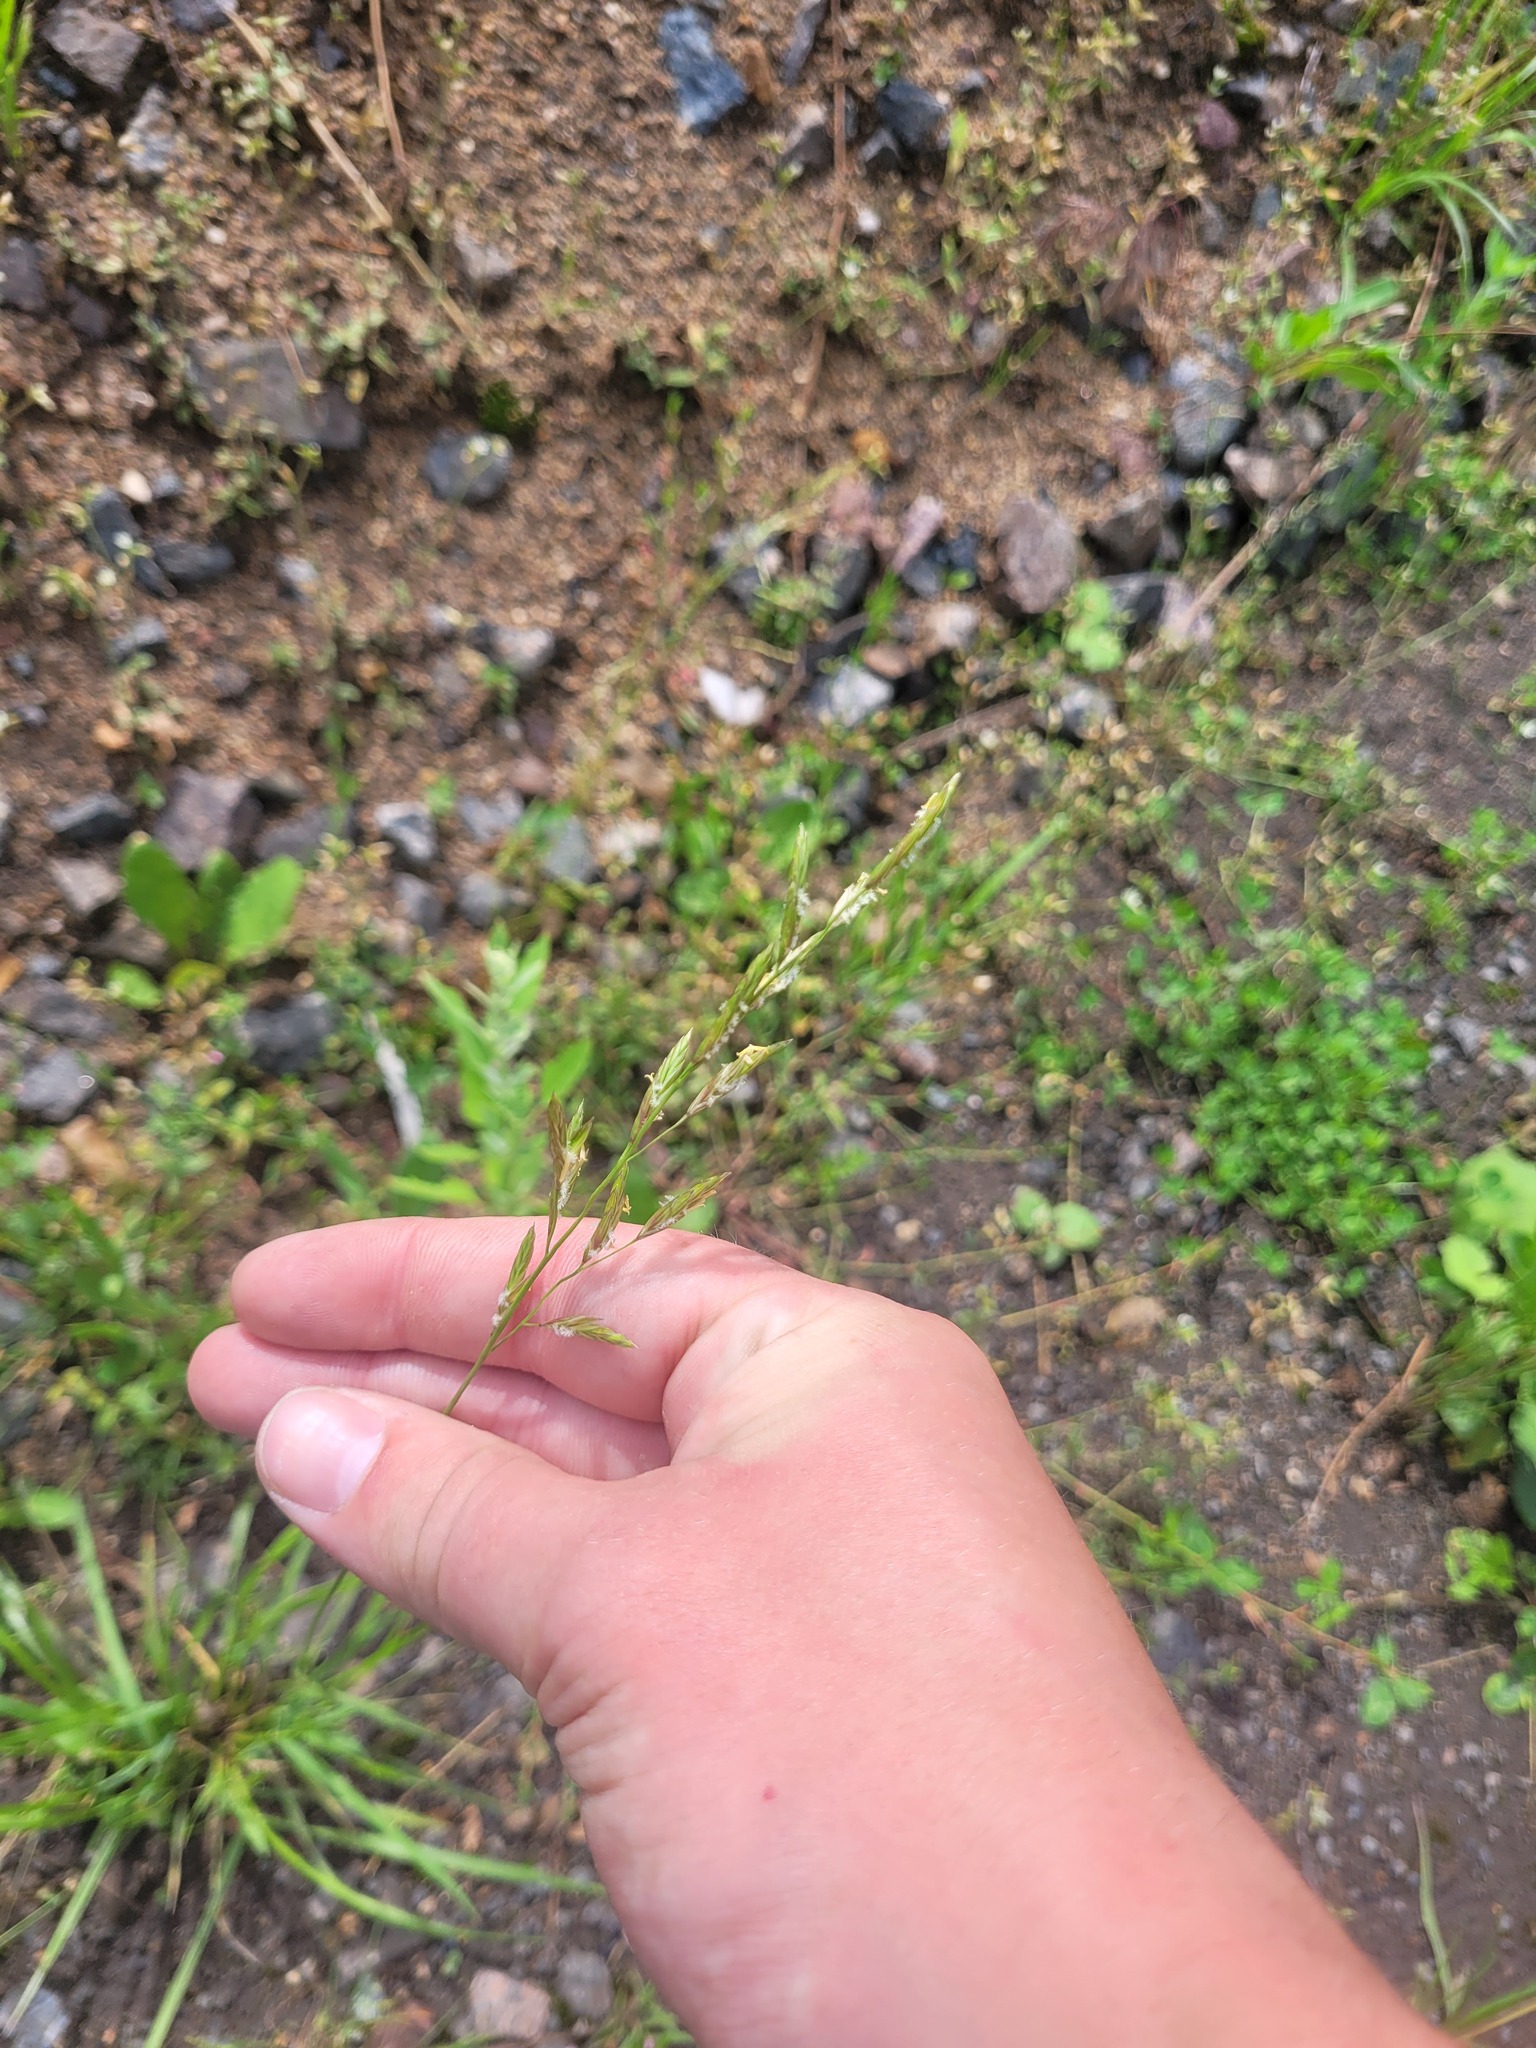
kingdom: Plantae
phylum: Tracheophyta
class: Liliopsida
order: Poales
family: Poaceae
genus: Lolium
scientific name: Lolium pratense
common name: Dover grass
